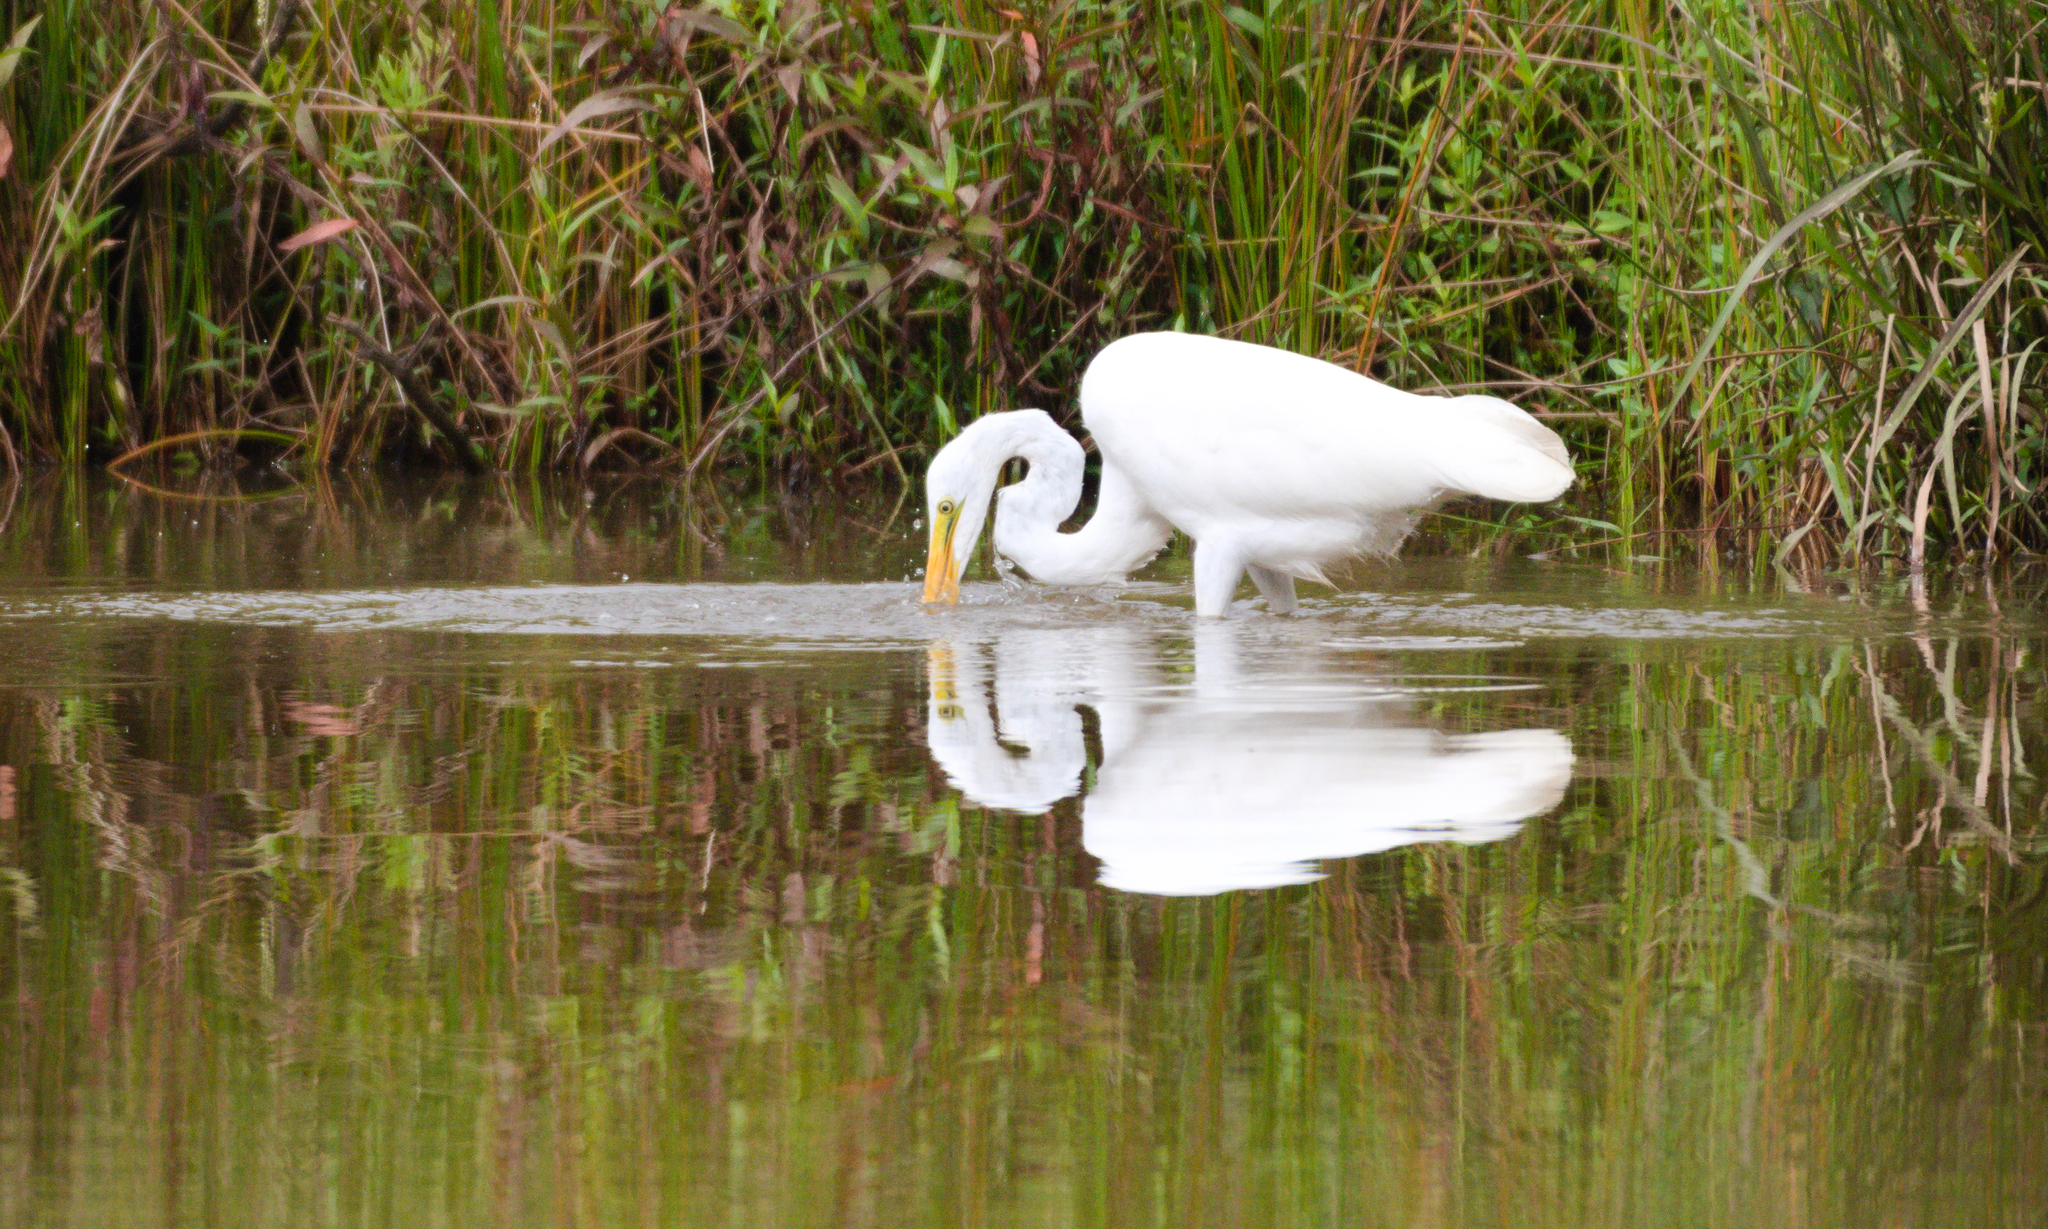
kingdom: Animalia
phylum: Chordata
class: Aves
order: Pelecaniformes
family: Ardeidae
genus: Ardea
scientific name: Ardea alba
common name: Great egret
